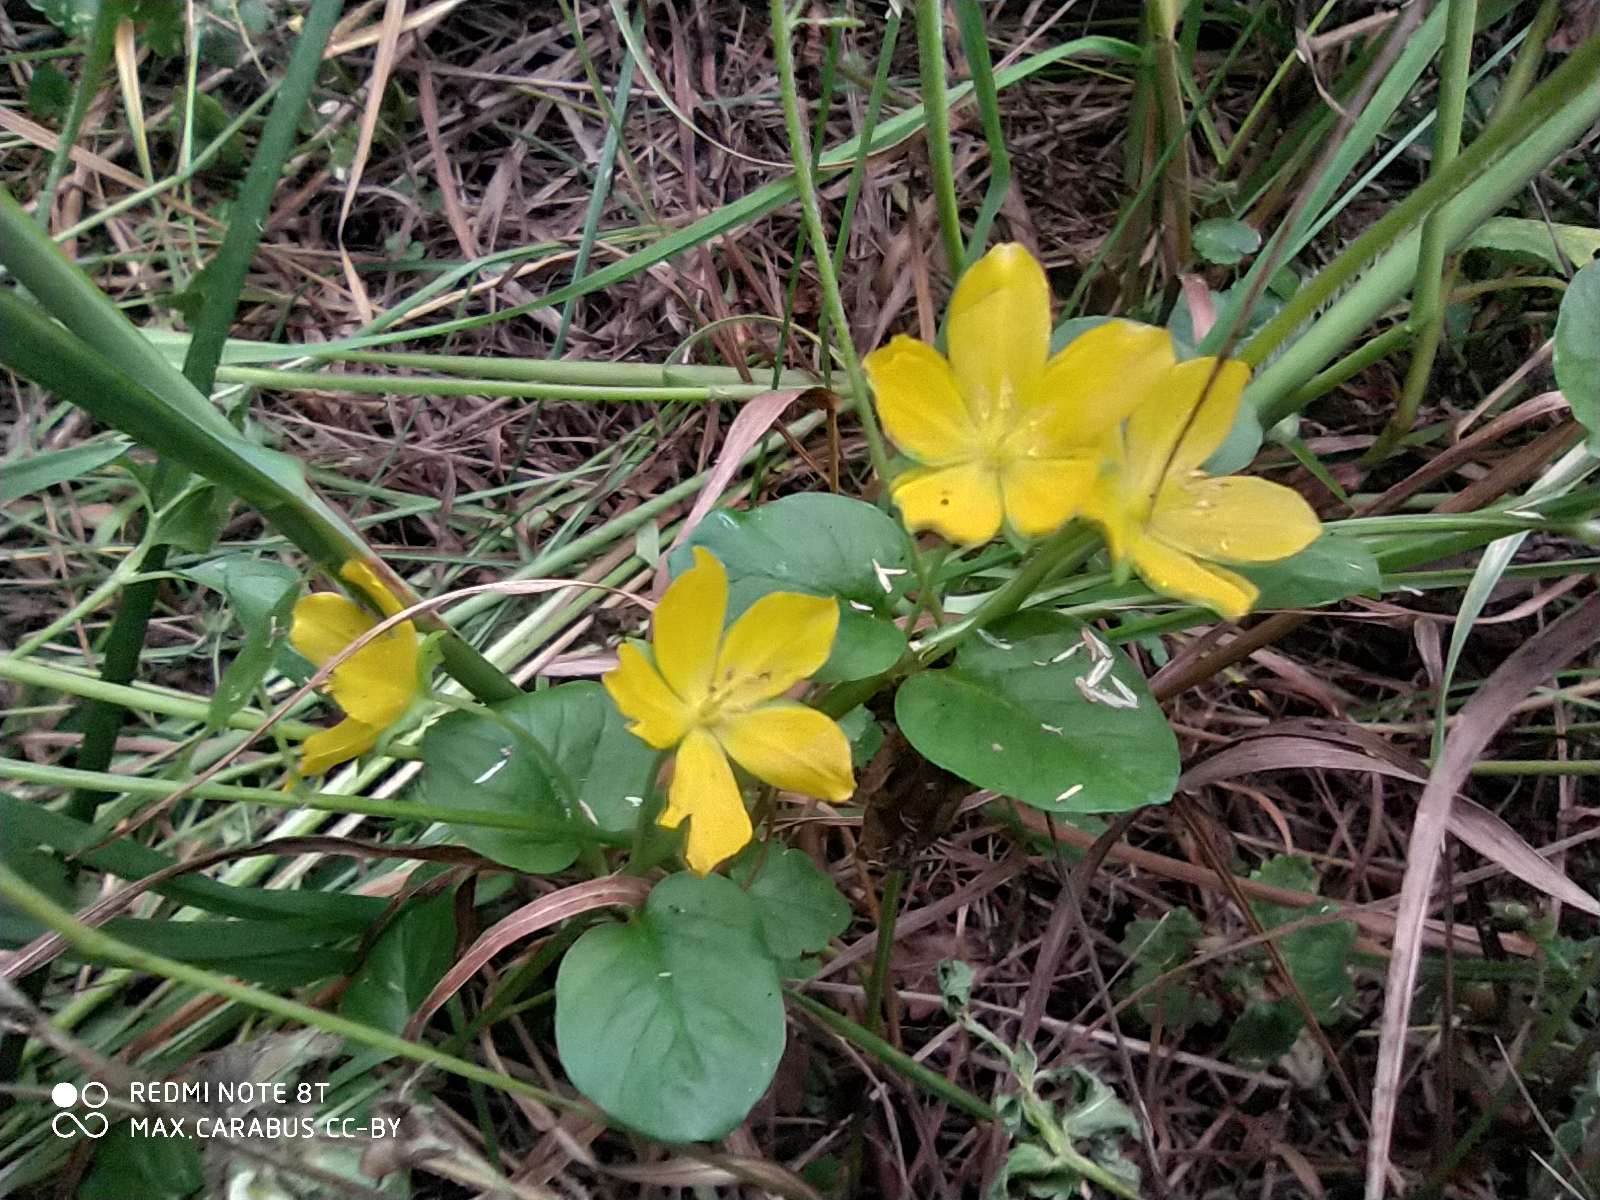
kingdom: Plantae
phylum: Tracheophyta
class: Magnoliopsida
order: Ericales
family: Primulaceae
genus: Lysimachia
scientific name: Lysimachia nummularia
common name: Moneywort
